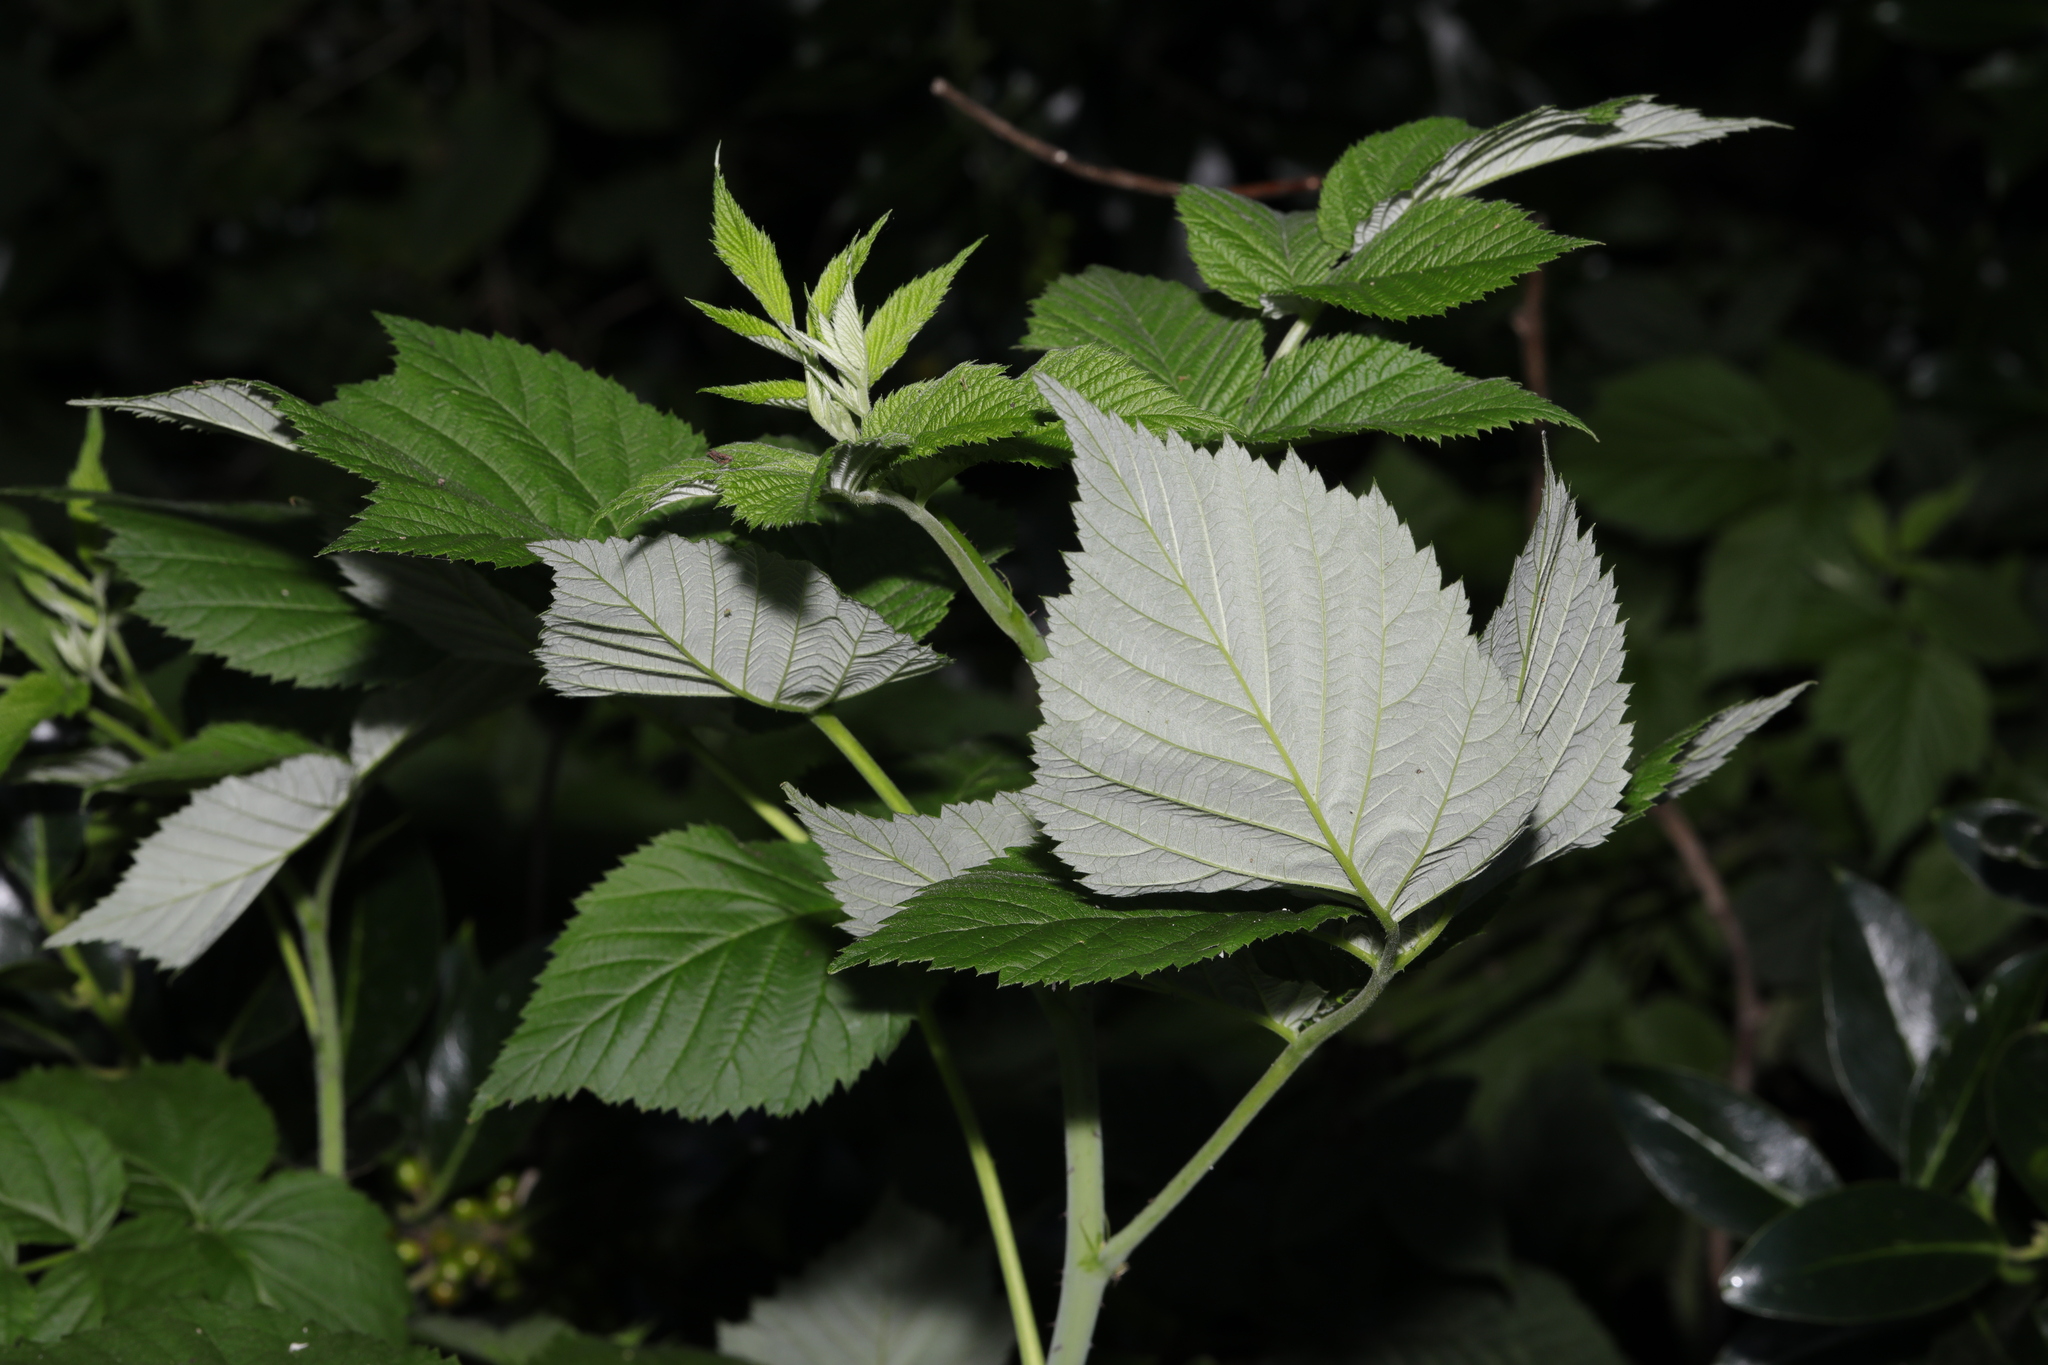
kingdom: Plantae
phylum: Tracheophyta
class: Magnoliopsida
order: Rosales
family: Rosaceae
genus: Rubus
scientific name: Rubus idaeus
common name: Raspberry
